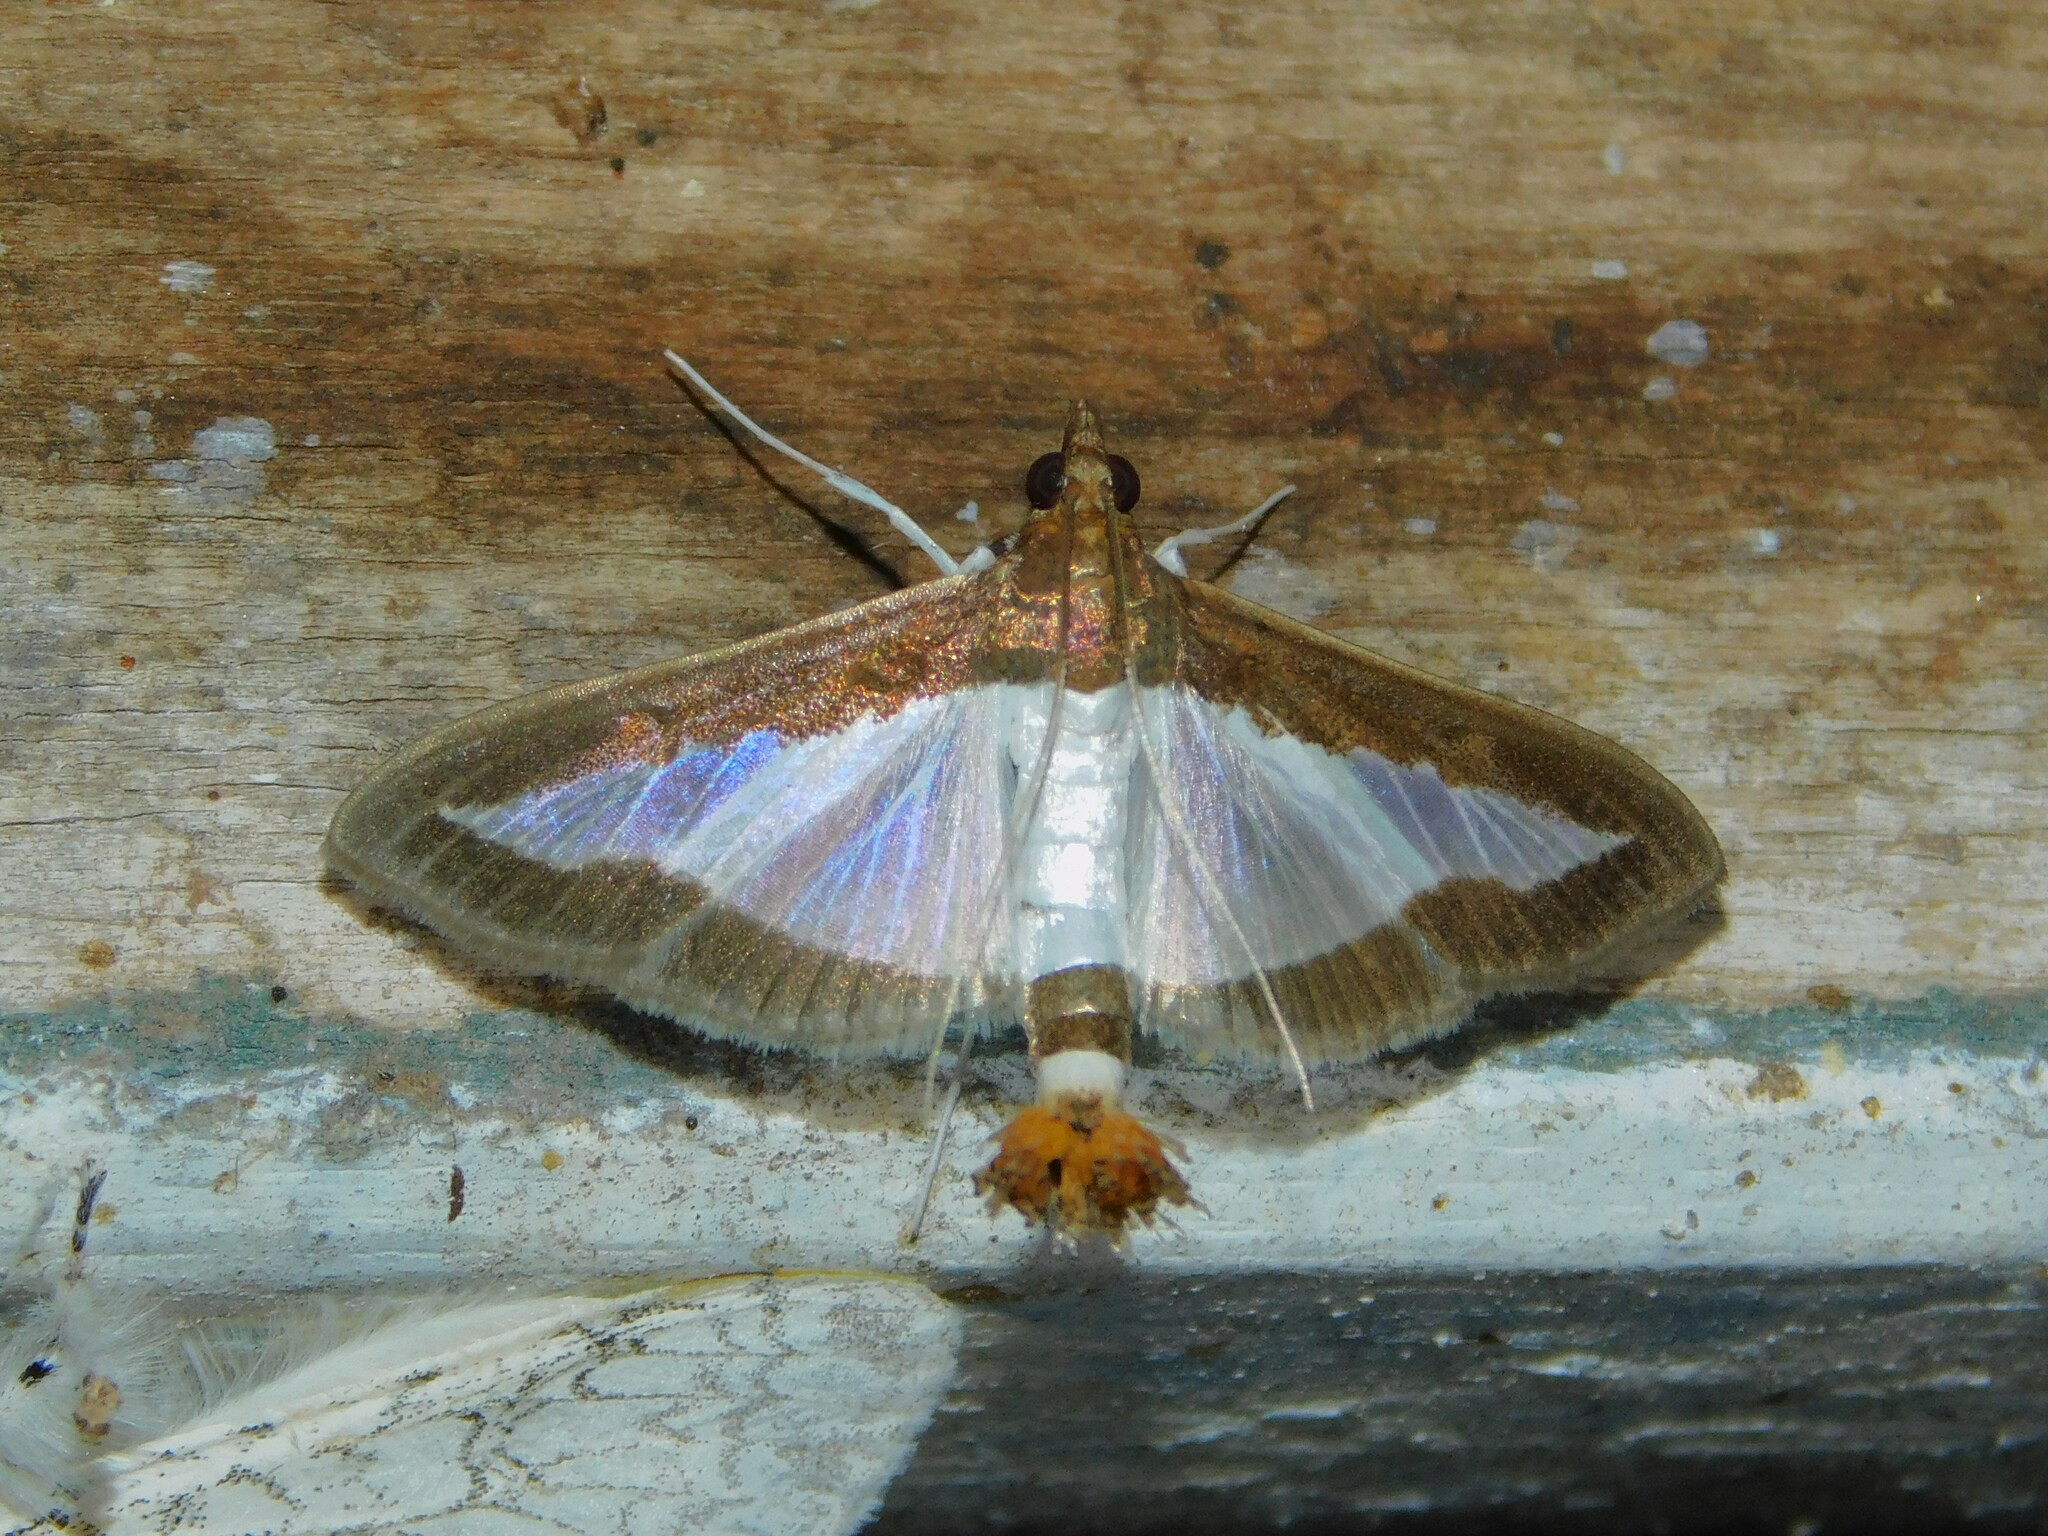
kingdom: Animalia
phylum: Arthropoda
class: Insecta
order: Lepidoptera
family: Crambidae
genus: Diaphania
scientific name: Diaphania indica
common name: Cucumber moth
